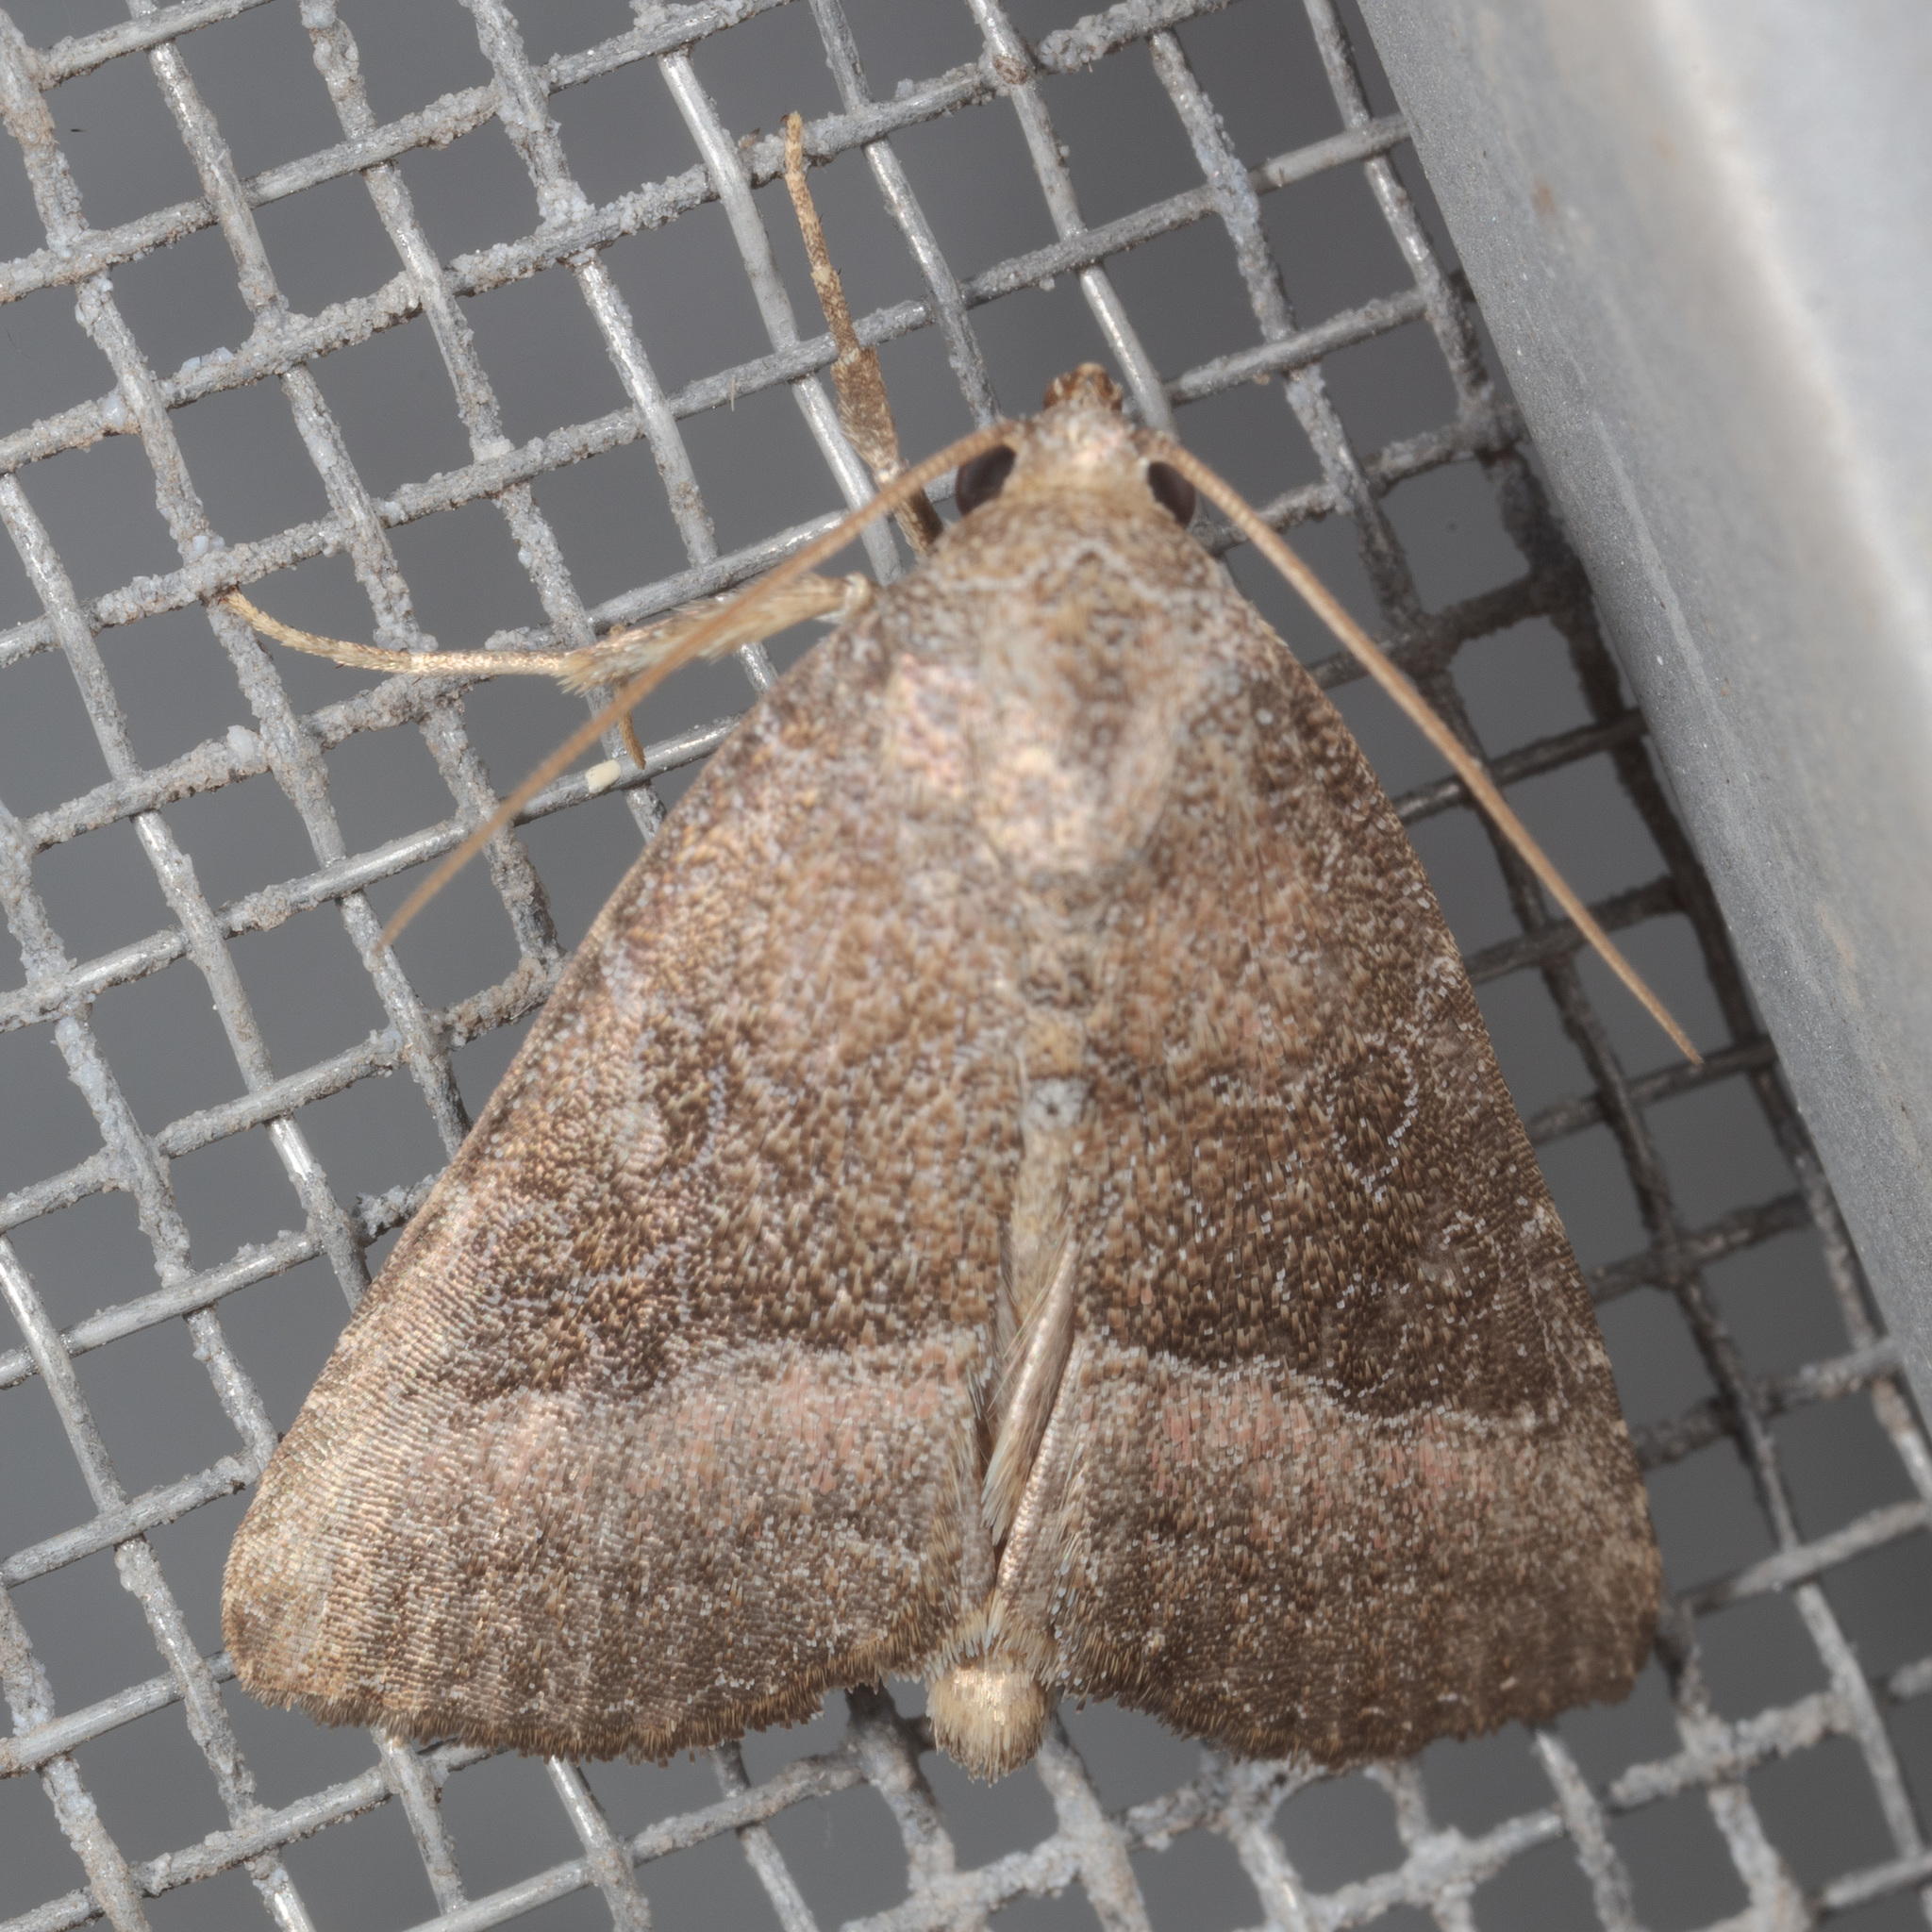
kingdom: Animalia
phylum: Arthropoda
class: Insecta
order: Lepidoptera
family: Noctuidae
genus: Ogdoconta
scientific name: Ogdoconta cinereola
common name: Common pinkband
